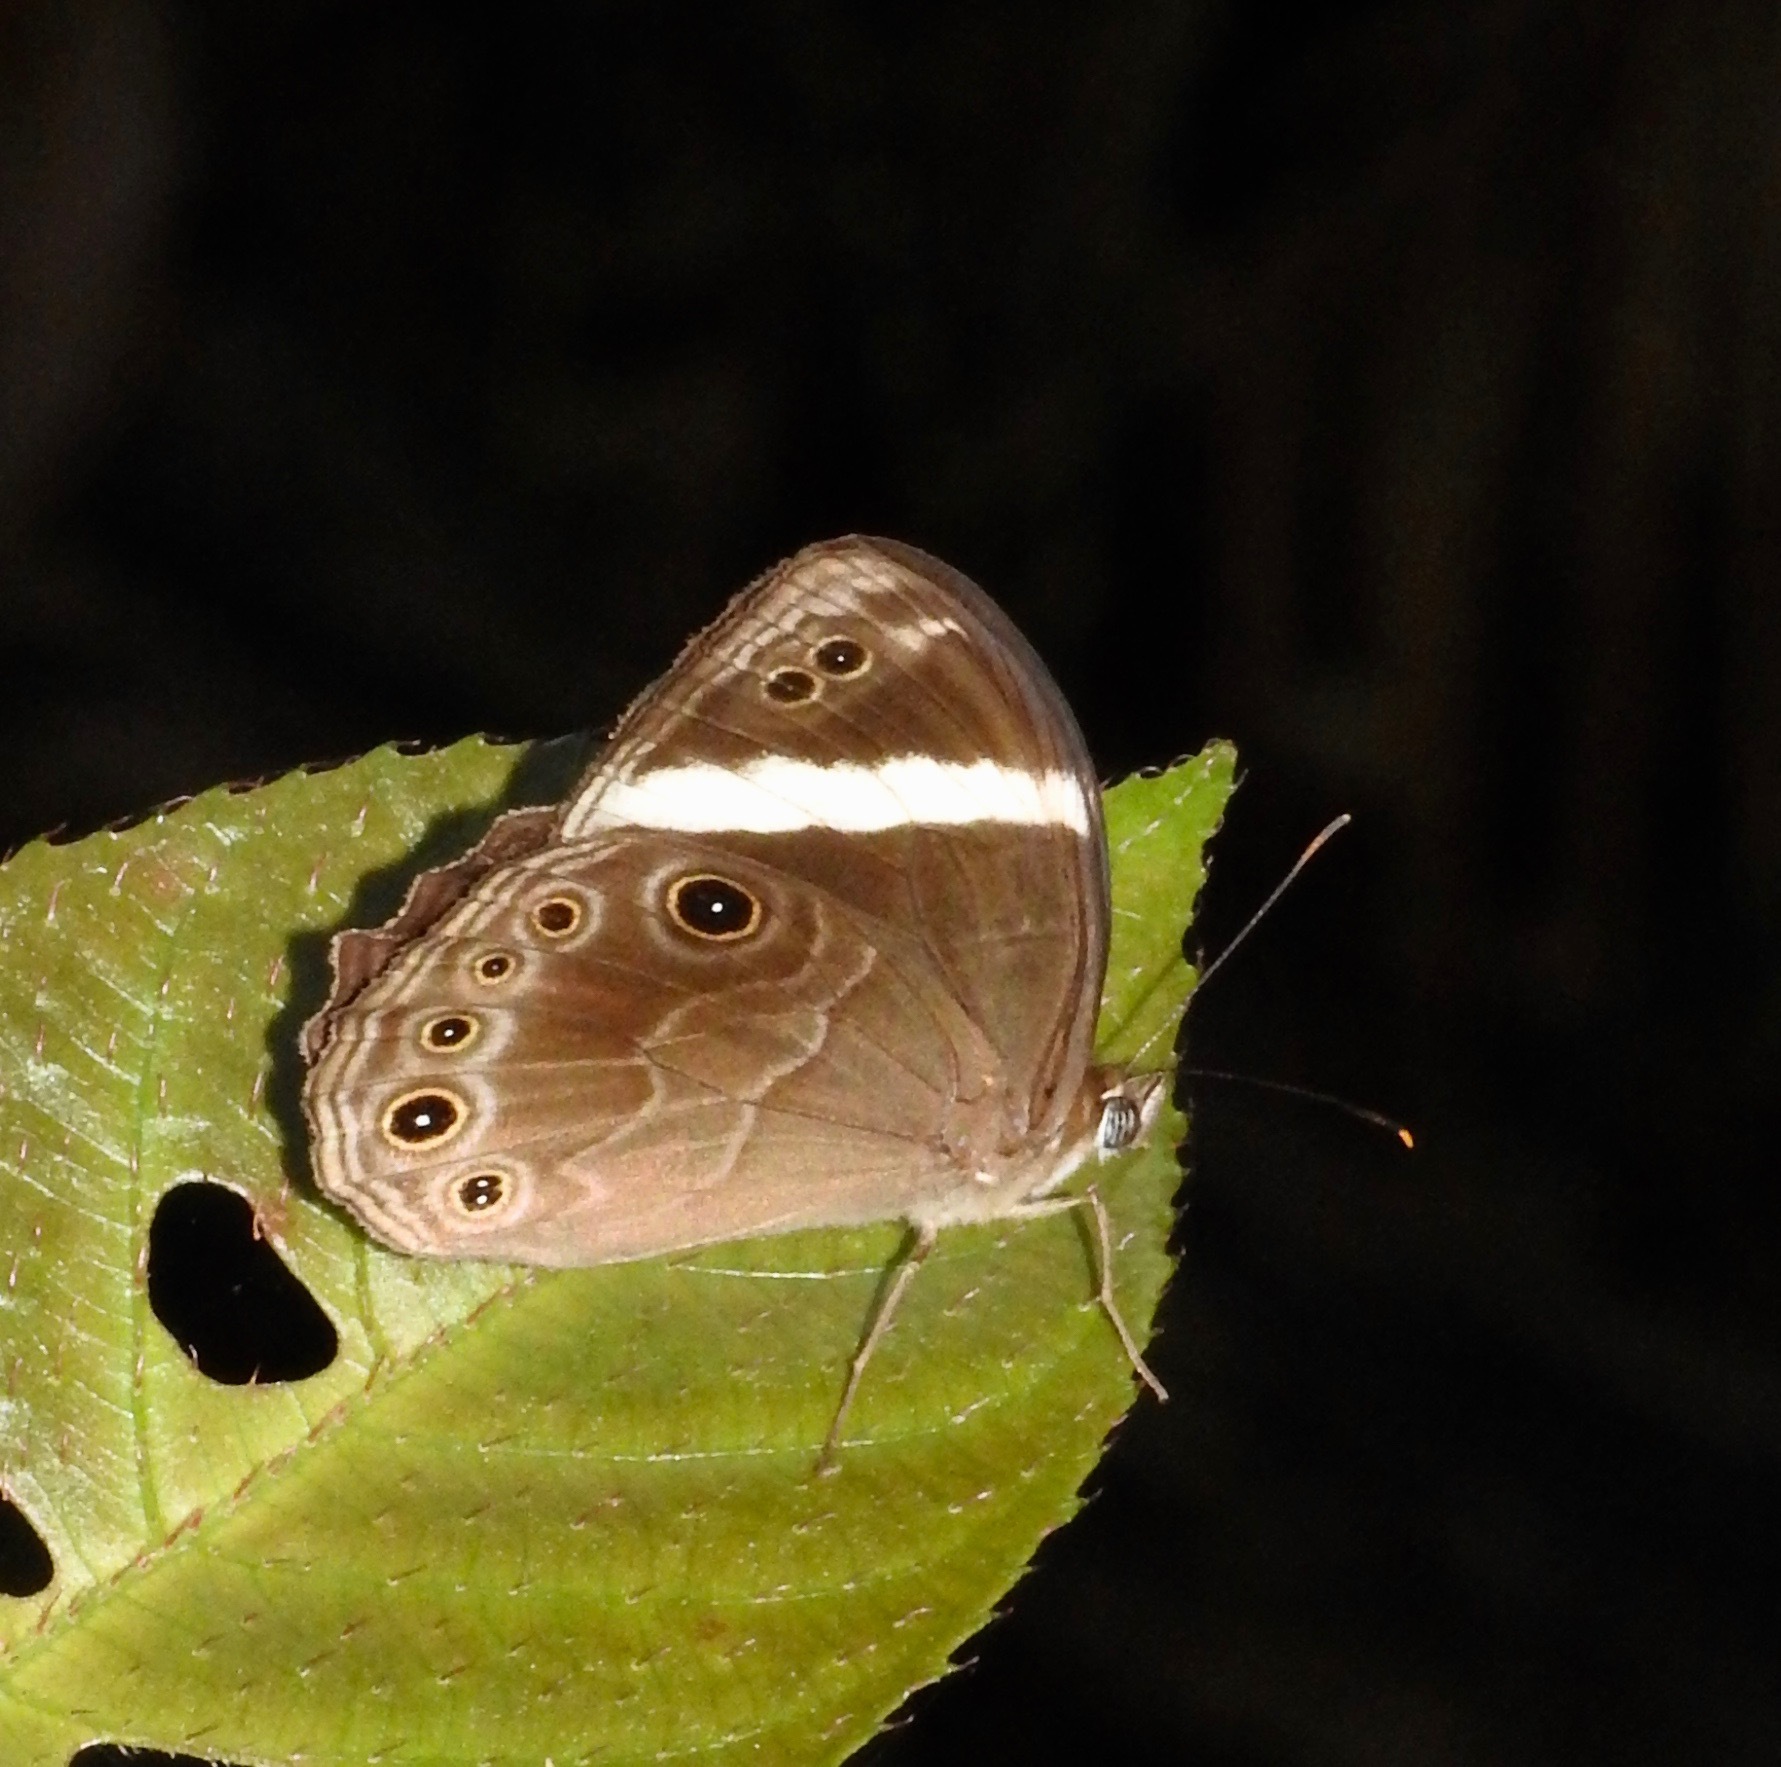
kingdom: Animalia
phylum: Arthropoda
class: Insecta
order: Lepidoptera
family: Nymphalidae
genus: Lethe
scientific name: Lethe verma
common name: Straight-banded treebrown
